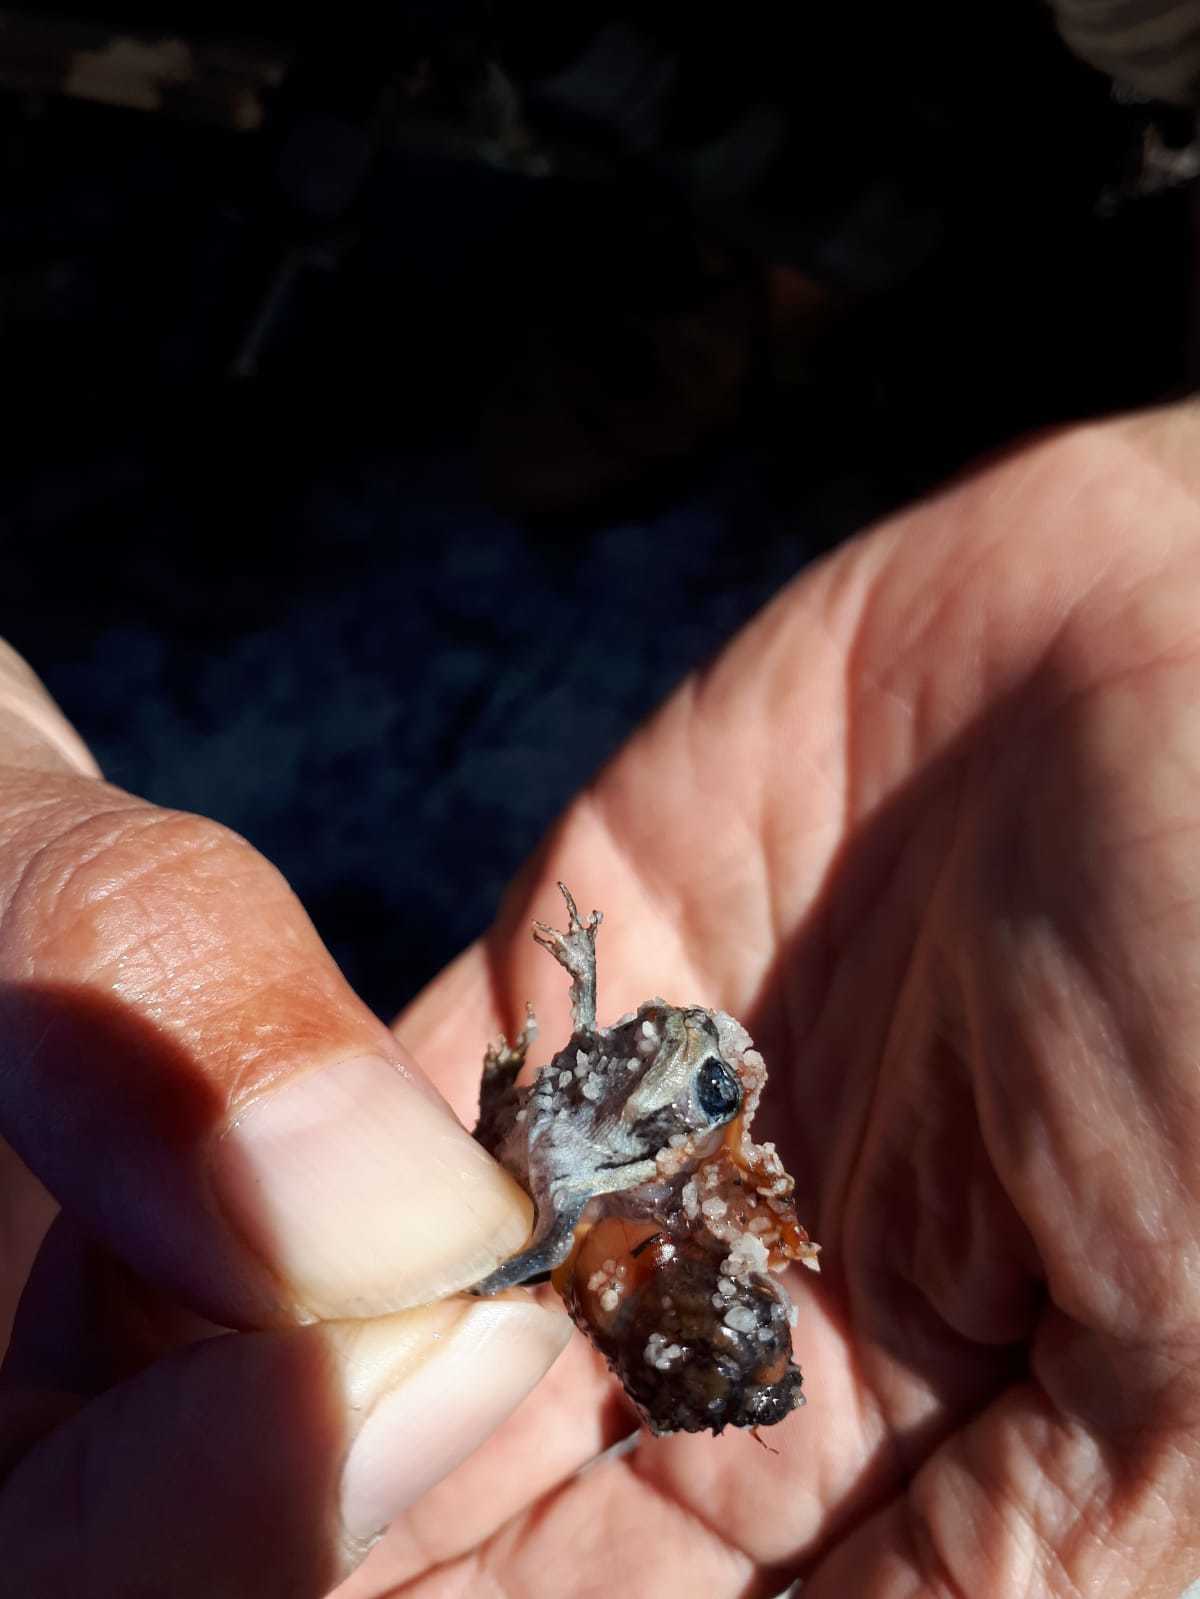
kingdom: Animalia
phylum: Chordata
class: Amphibia
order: Anura
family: Brevicipitidae
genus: Breviceps
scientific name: Breviceps montanus
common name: Mountain rain frog
